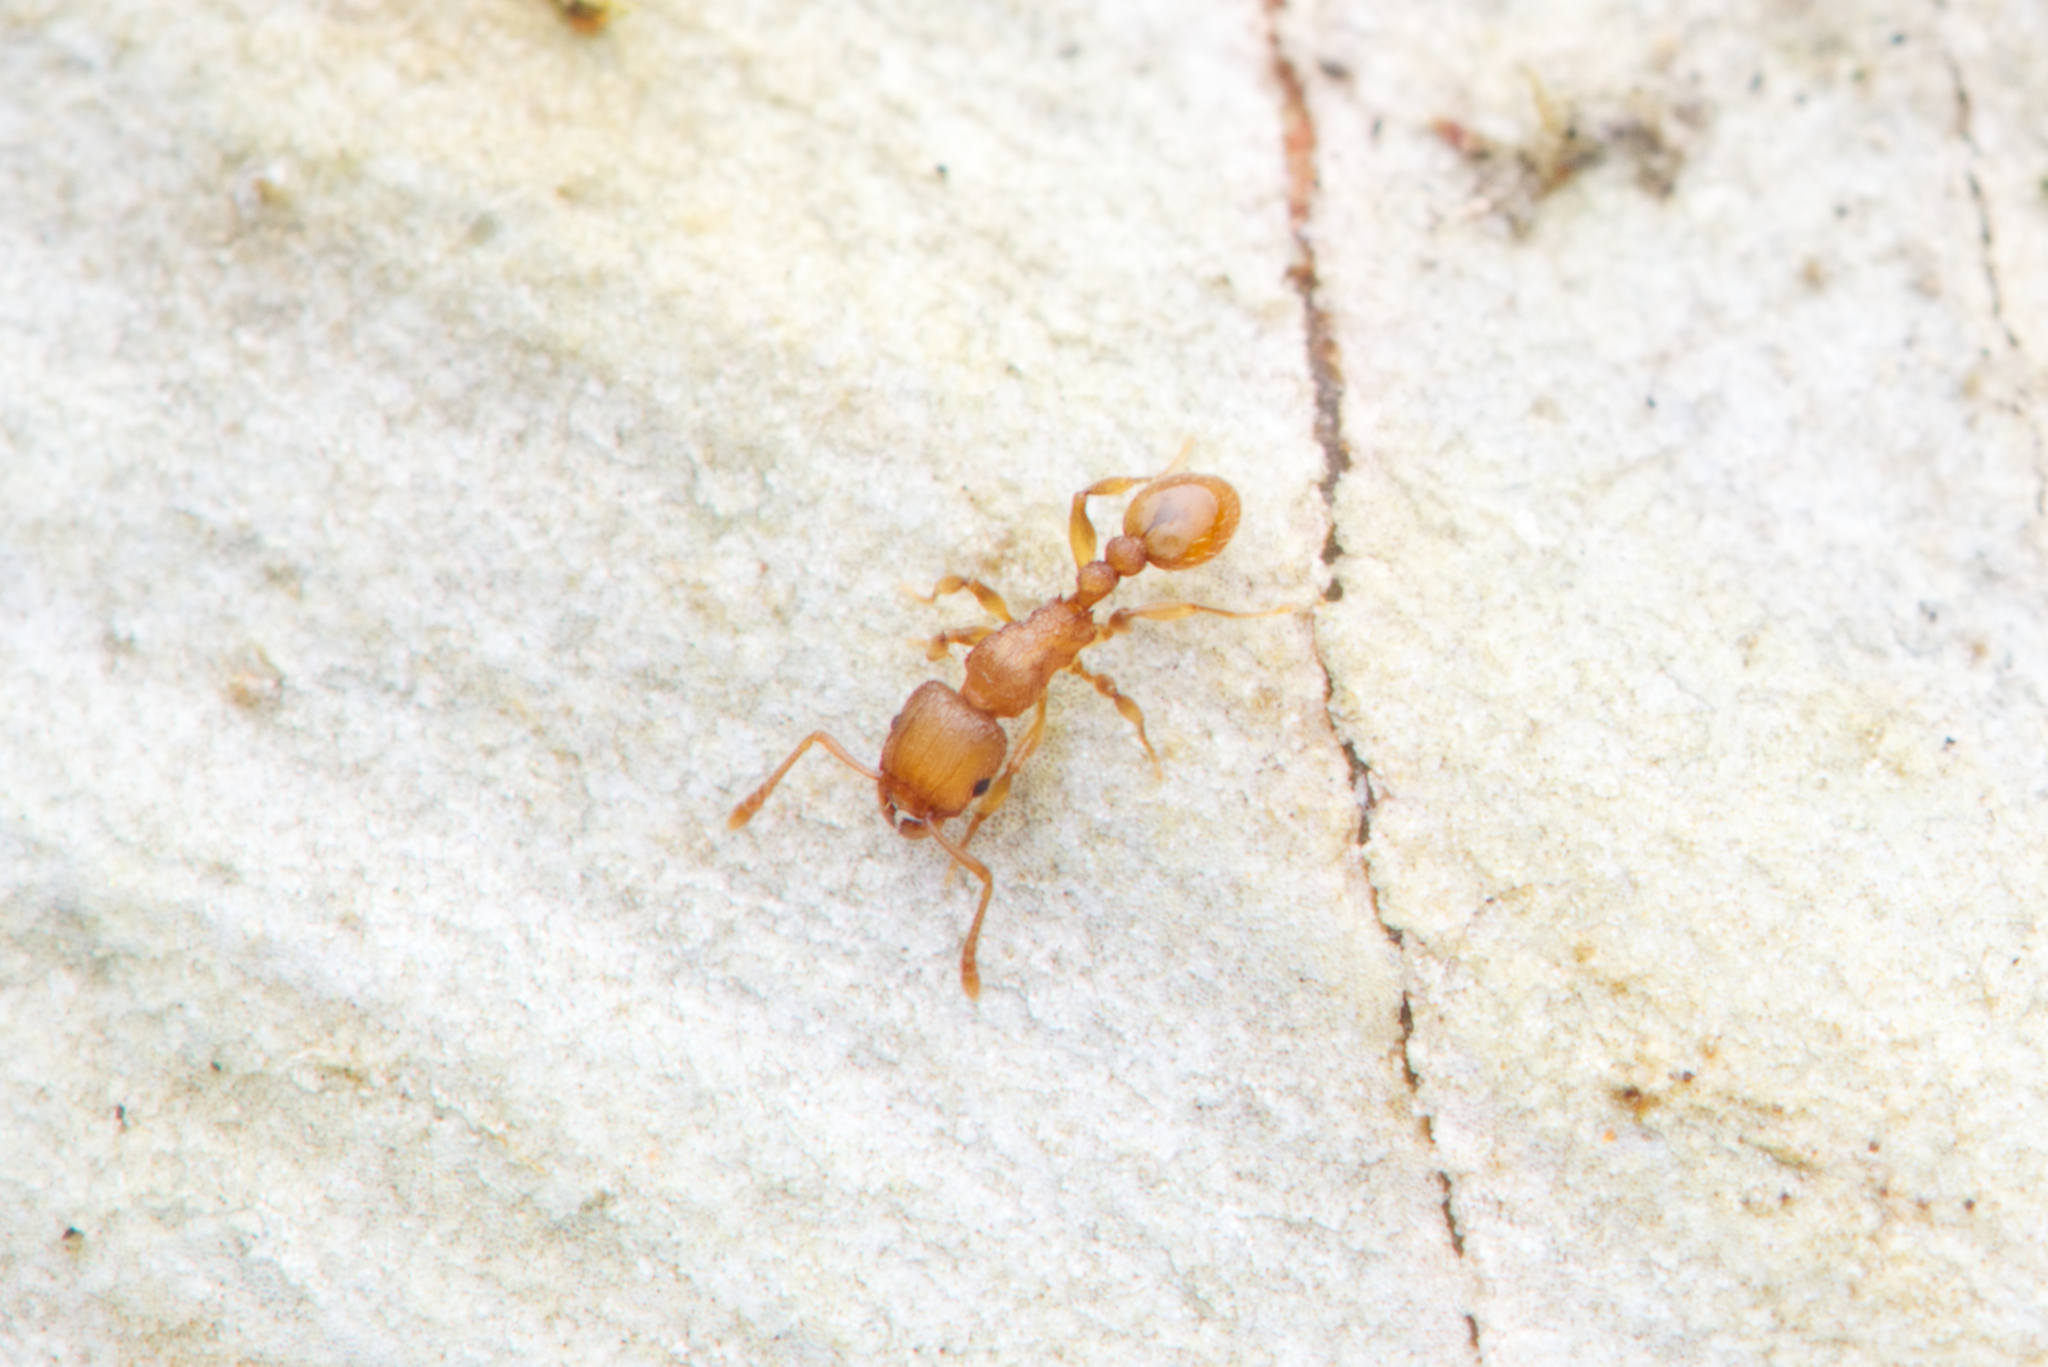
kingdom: Animalia
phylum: Arthropoda
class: Insecta
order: Hymenoptera
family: Formicidae
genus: Tetramorium
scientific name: Tetramorium simillimum
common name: Ant
